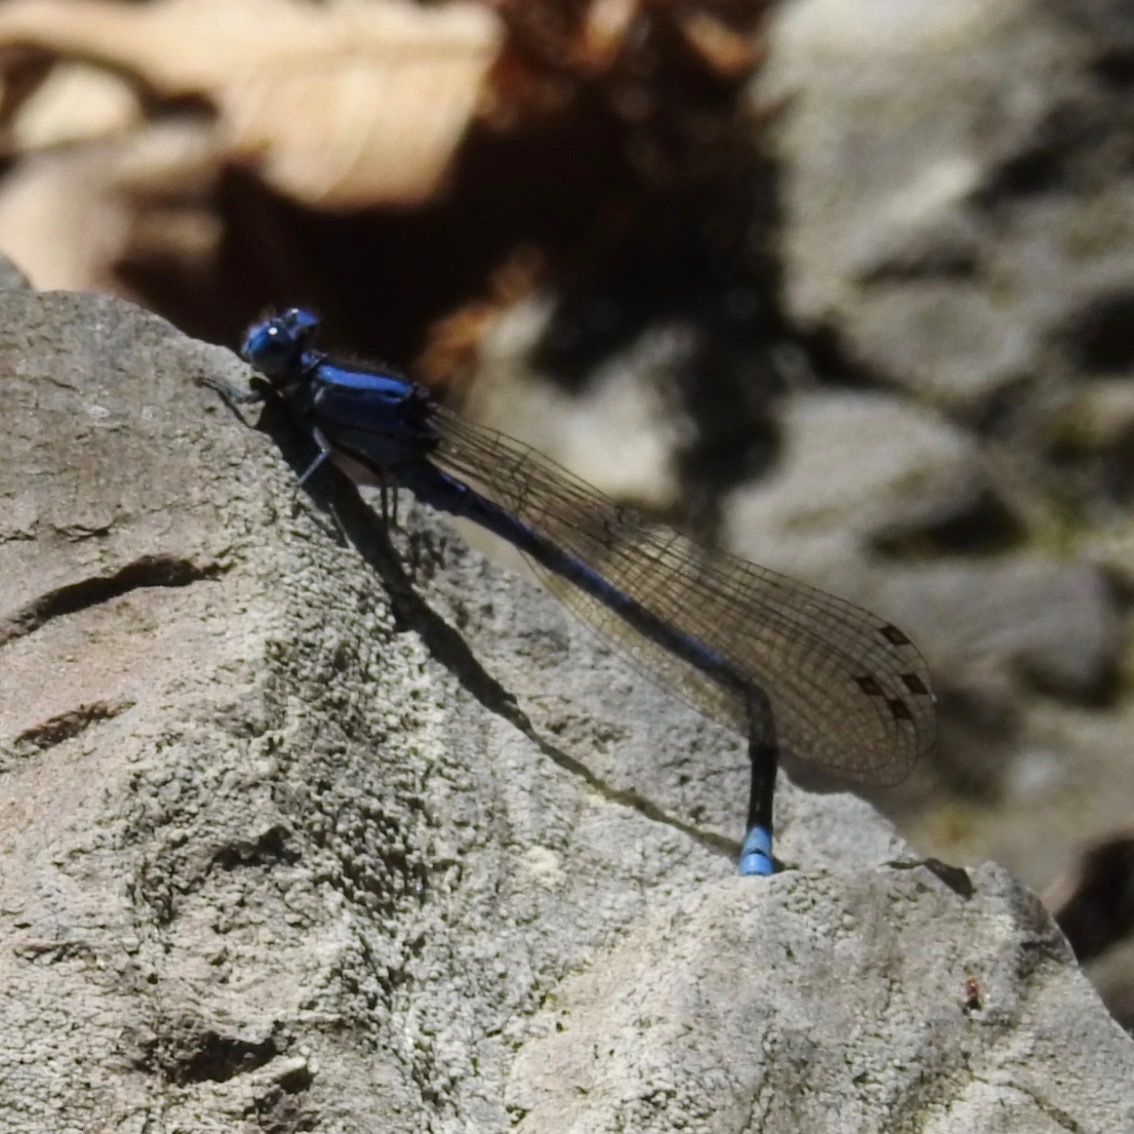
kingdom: Animalia
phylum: Arthropoda
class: Insecta
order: Odonata
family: Coenagrionidae
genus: Argia
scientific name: Argia vivida
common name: Vivid dancer
